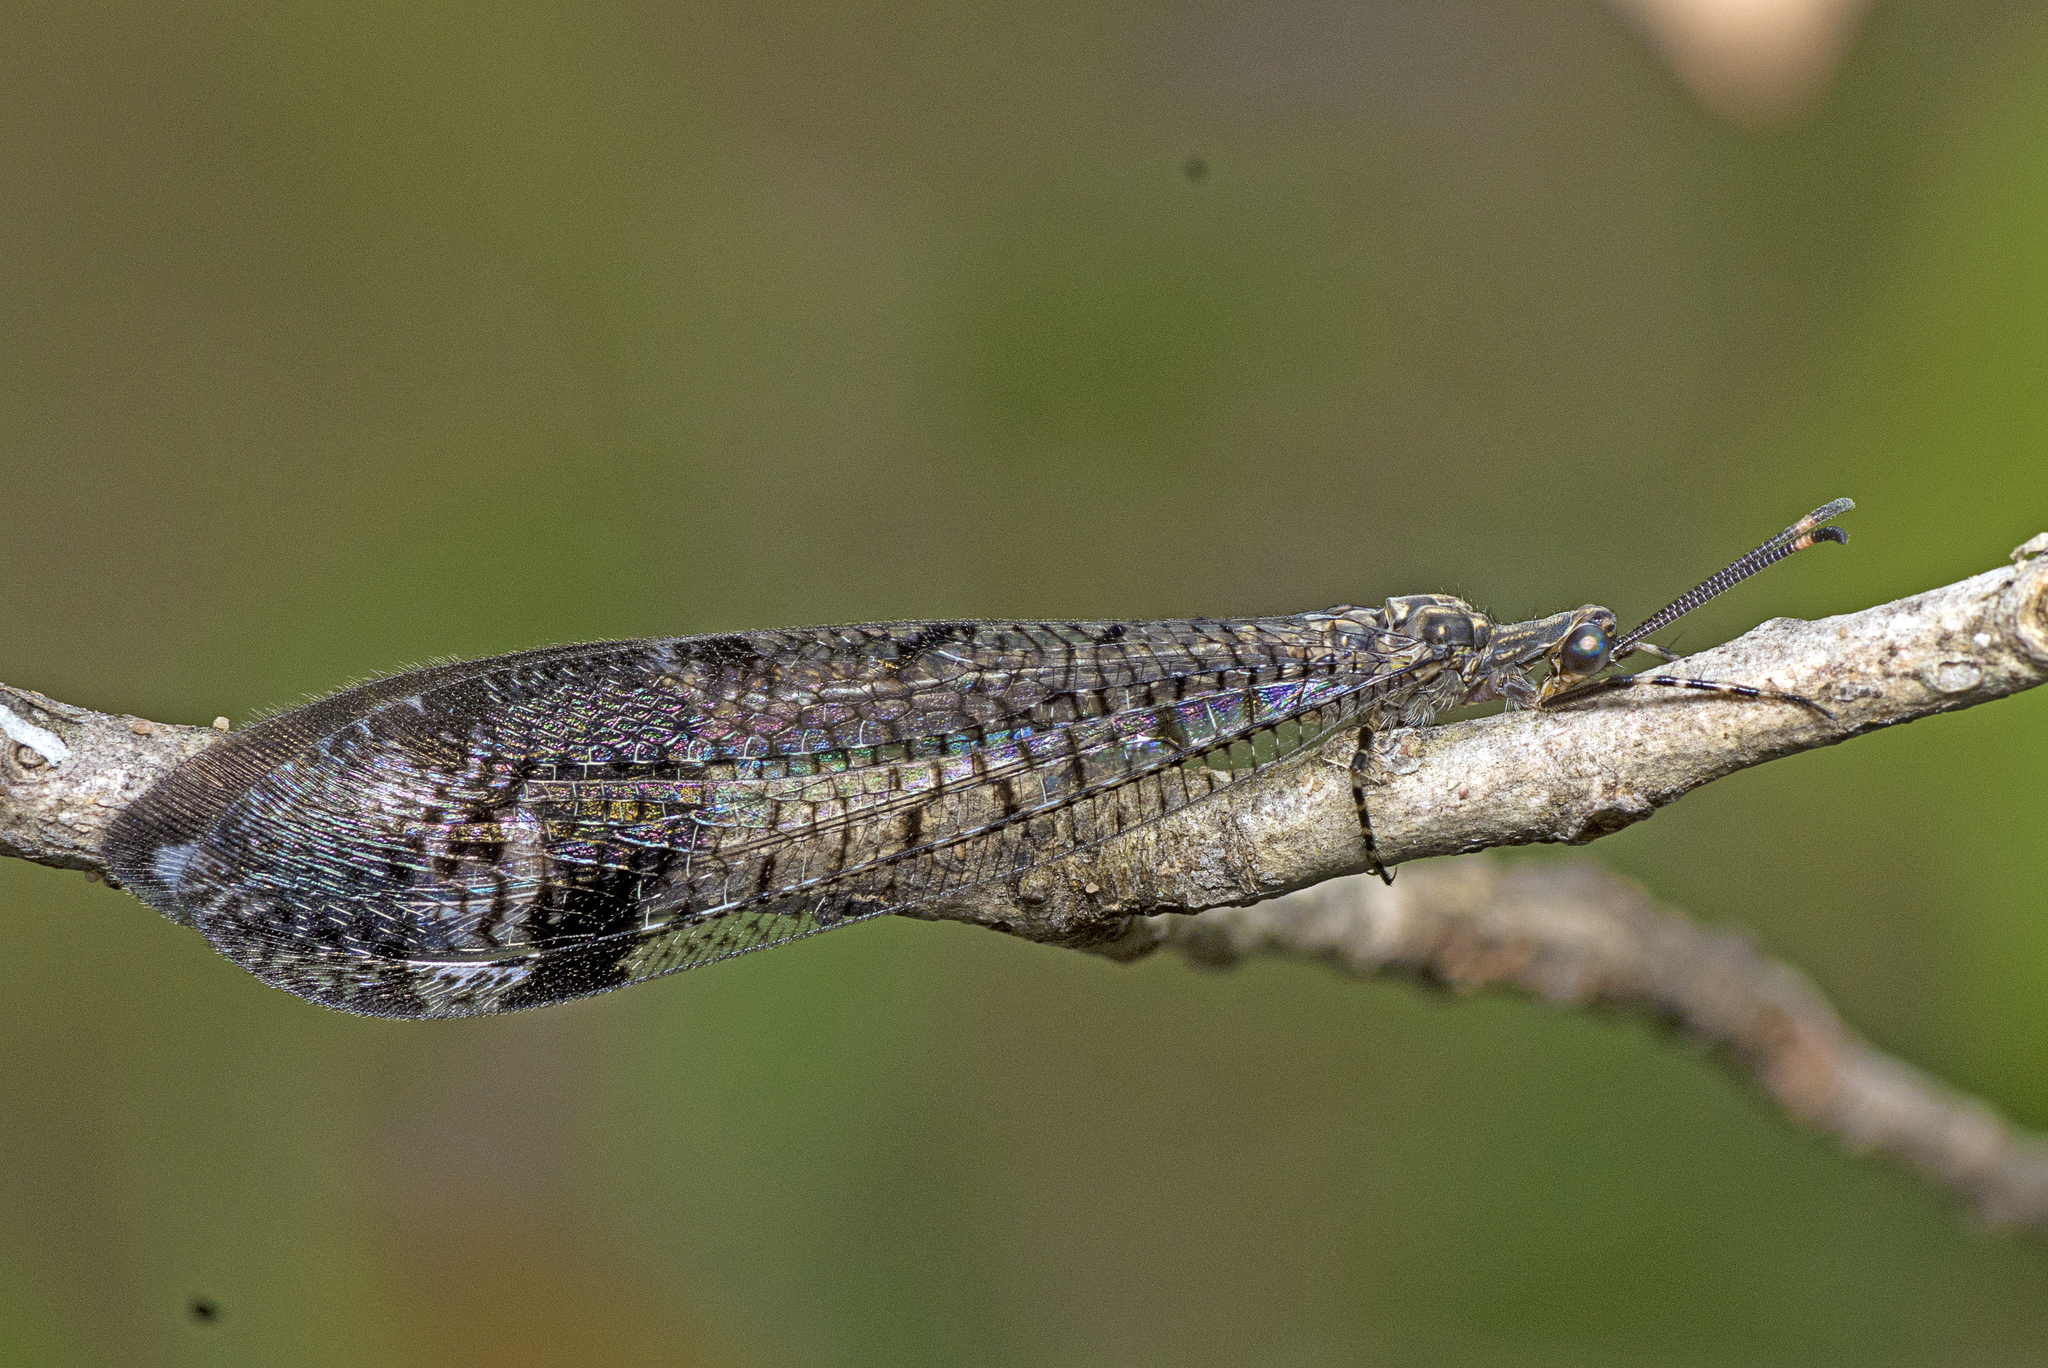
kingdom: Animalia
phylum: Arthropoda
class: Insecta
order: Neuroptera
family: Myrmeleontidae
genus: Glenoleon
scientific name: Glenoleon pulchellus
